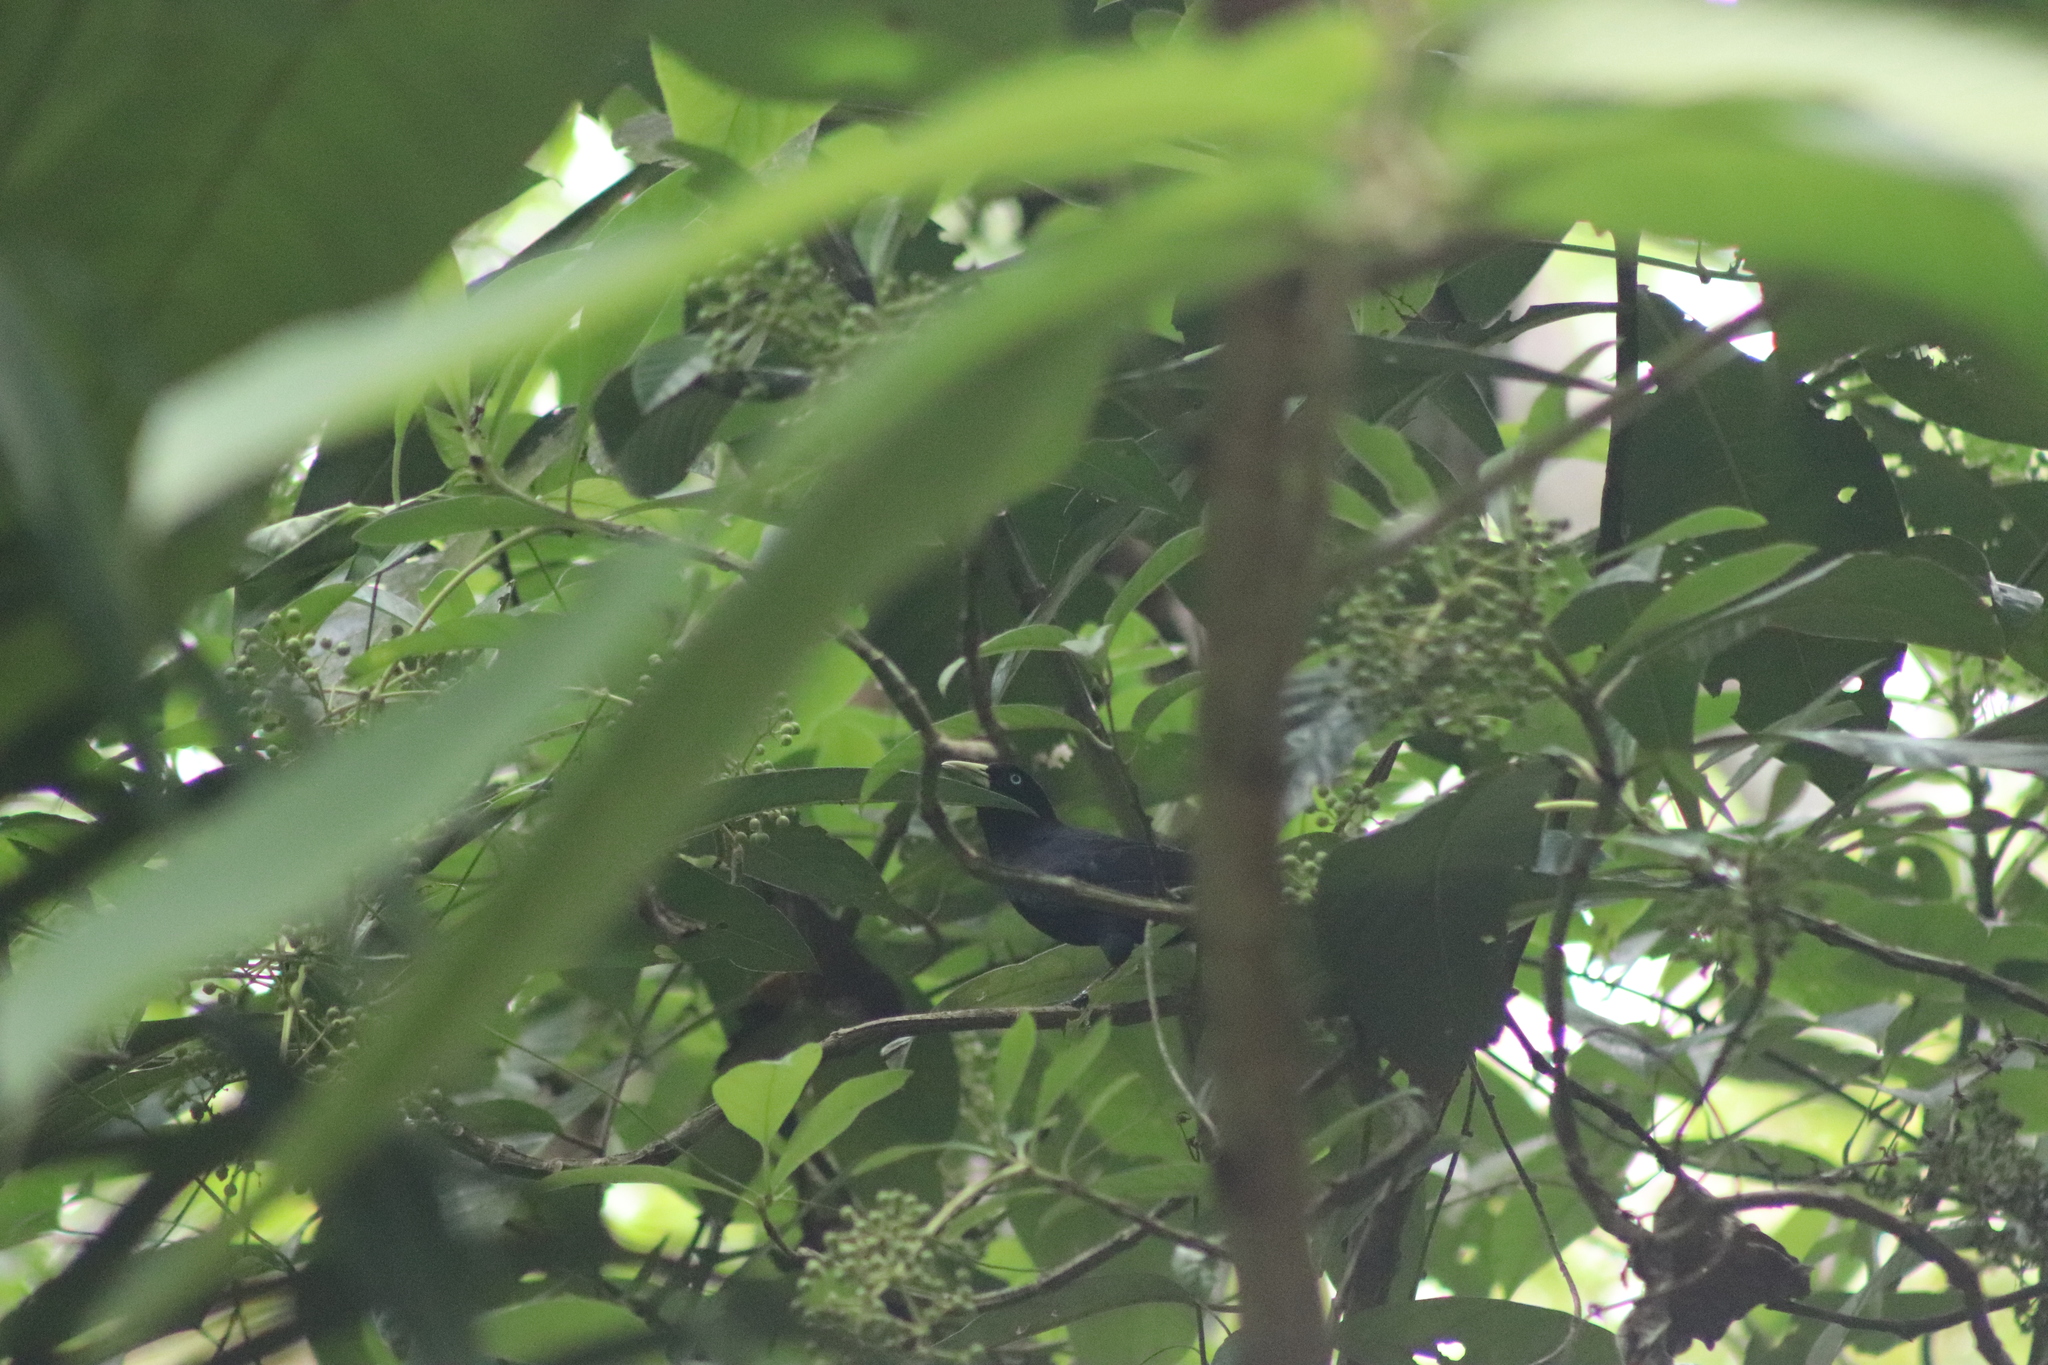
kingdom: Animalia
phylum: Chordata
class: Aves
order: Passeriformes
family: Icteridae
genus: Cacicus
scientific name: Cacicus uropygialis
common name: Scarlet-rumped cacique
